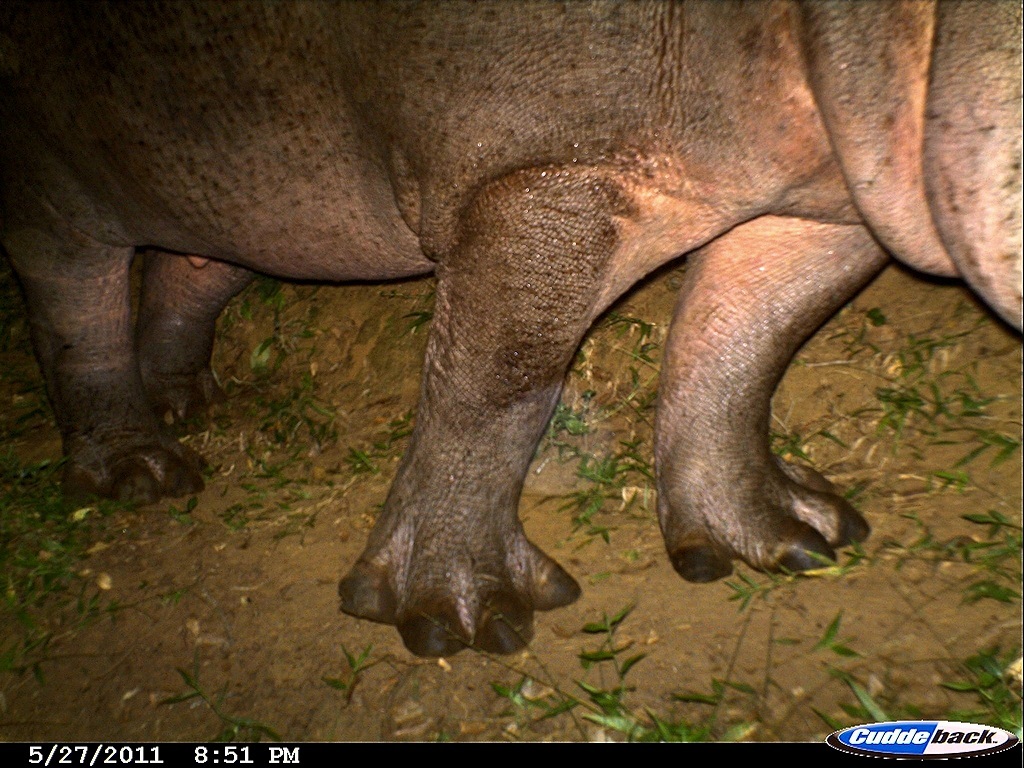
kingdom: Animalia
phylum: Chordata
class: Mammalia
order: Artiodactyla
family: Hippopotamidae
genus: Hippopotamus
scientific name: Hippopotamus amphibius
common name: Common hippopotamus
